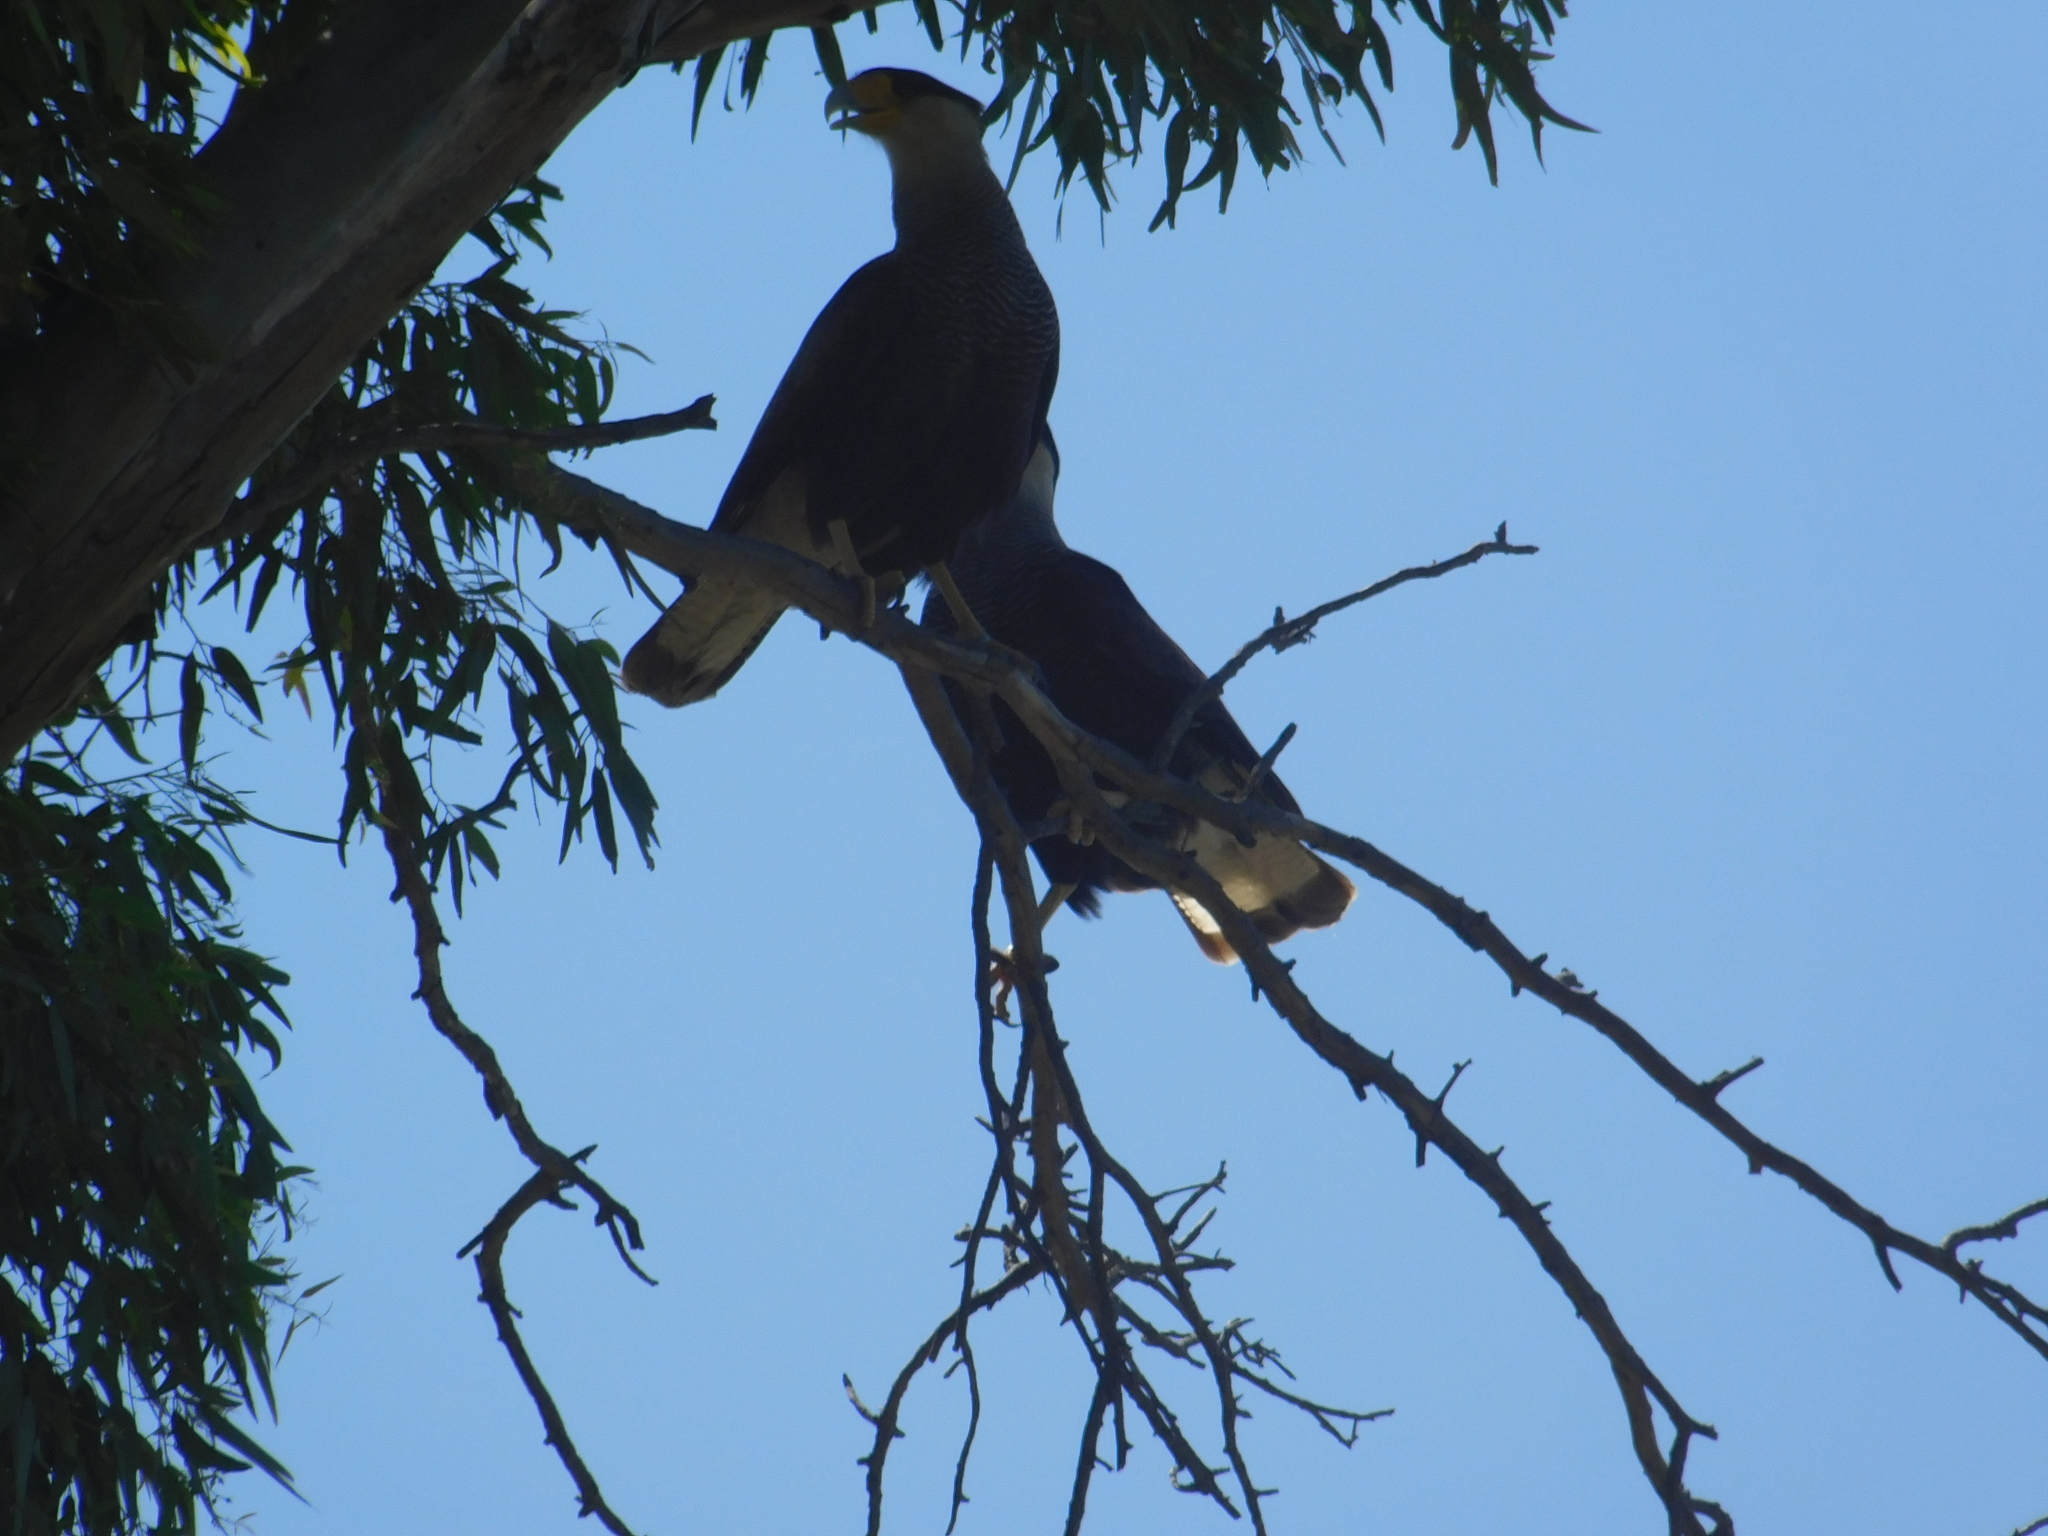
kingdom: Animalia
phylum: Chordata
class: Aves
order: Falconiformes
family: Falconidae
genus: Caracara
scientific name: Caracara plancus
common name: Southern caracara
